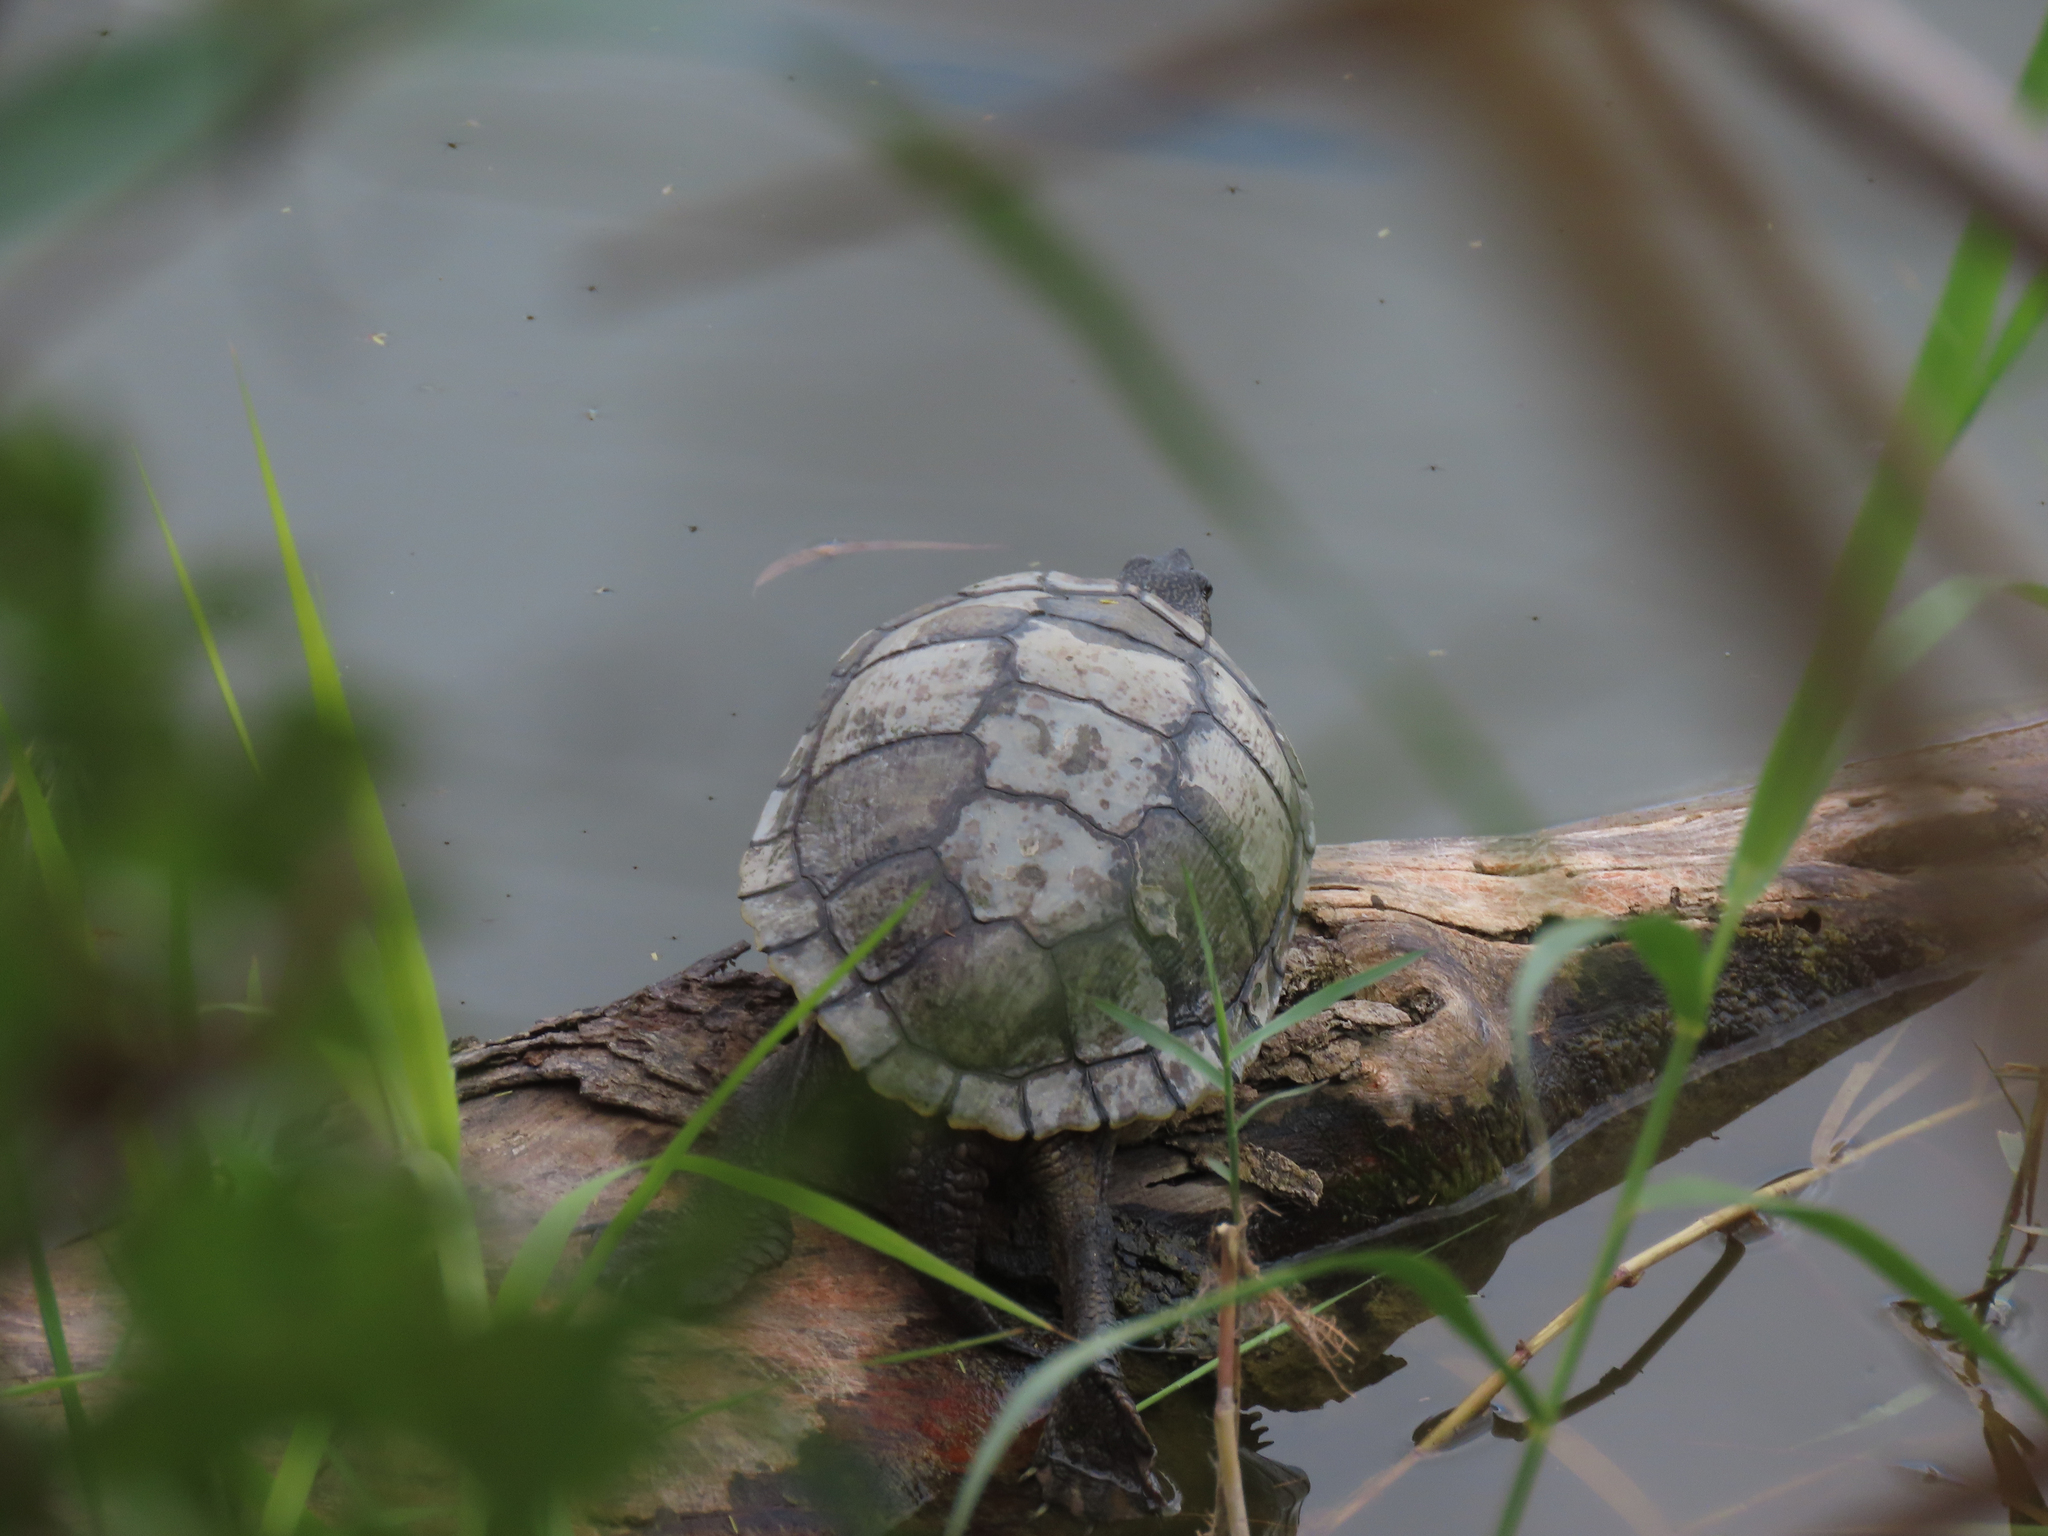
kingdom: Animalia
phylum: Chordata
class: Testudines
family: Emydidae
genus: Trachemys
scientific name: Trachemys scripta
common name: Slider
